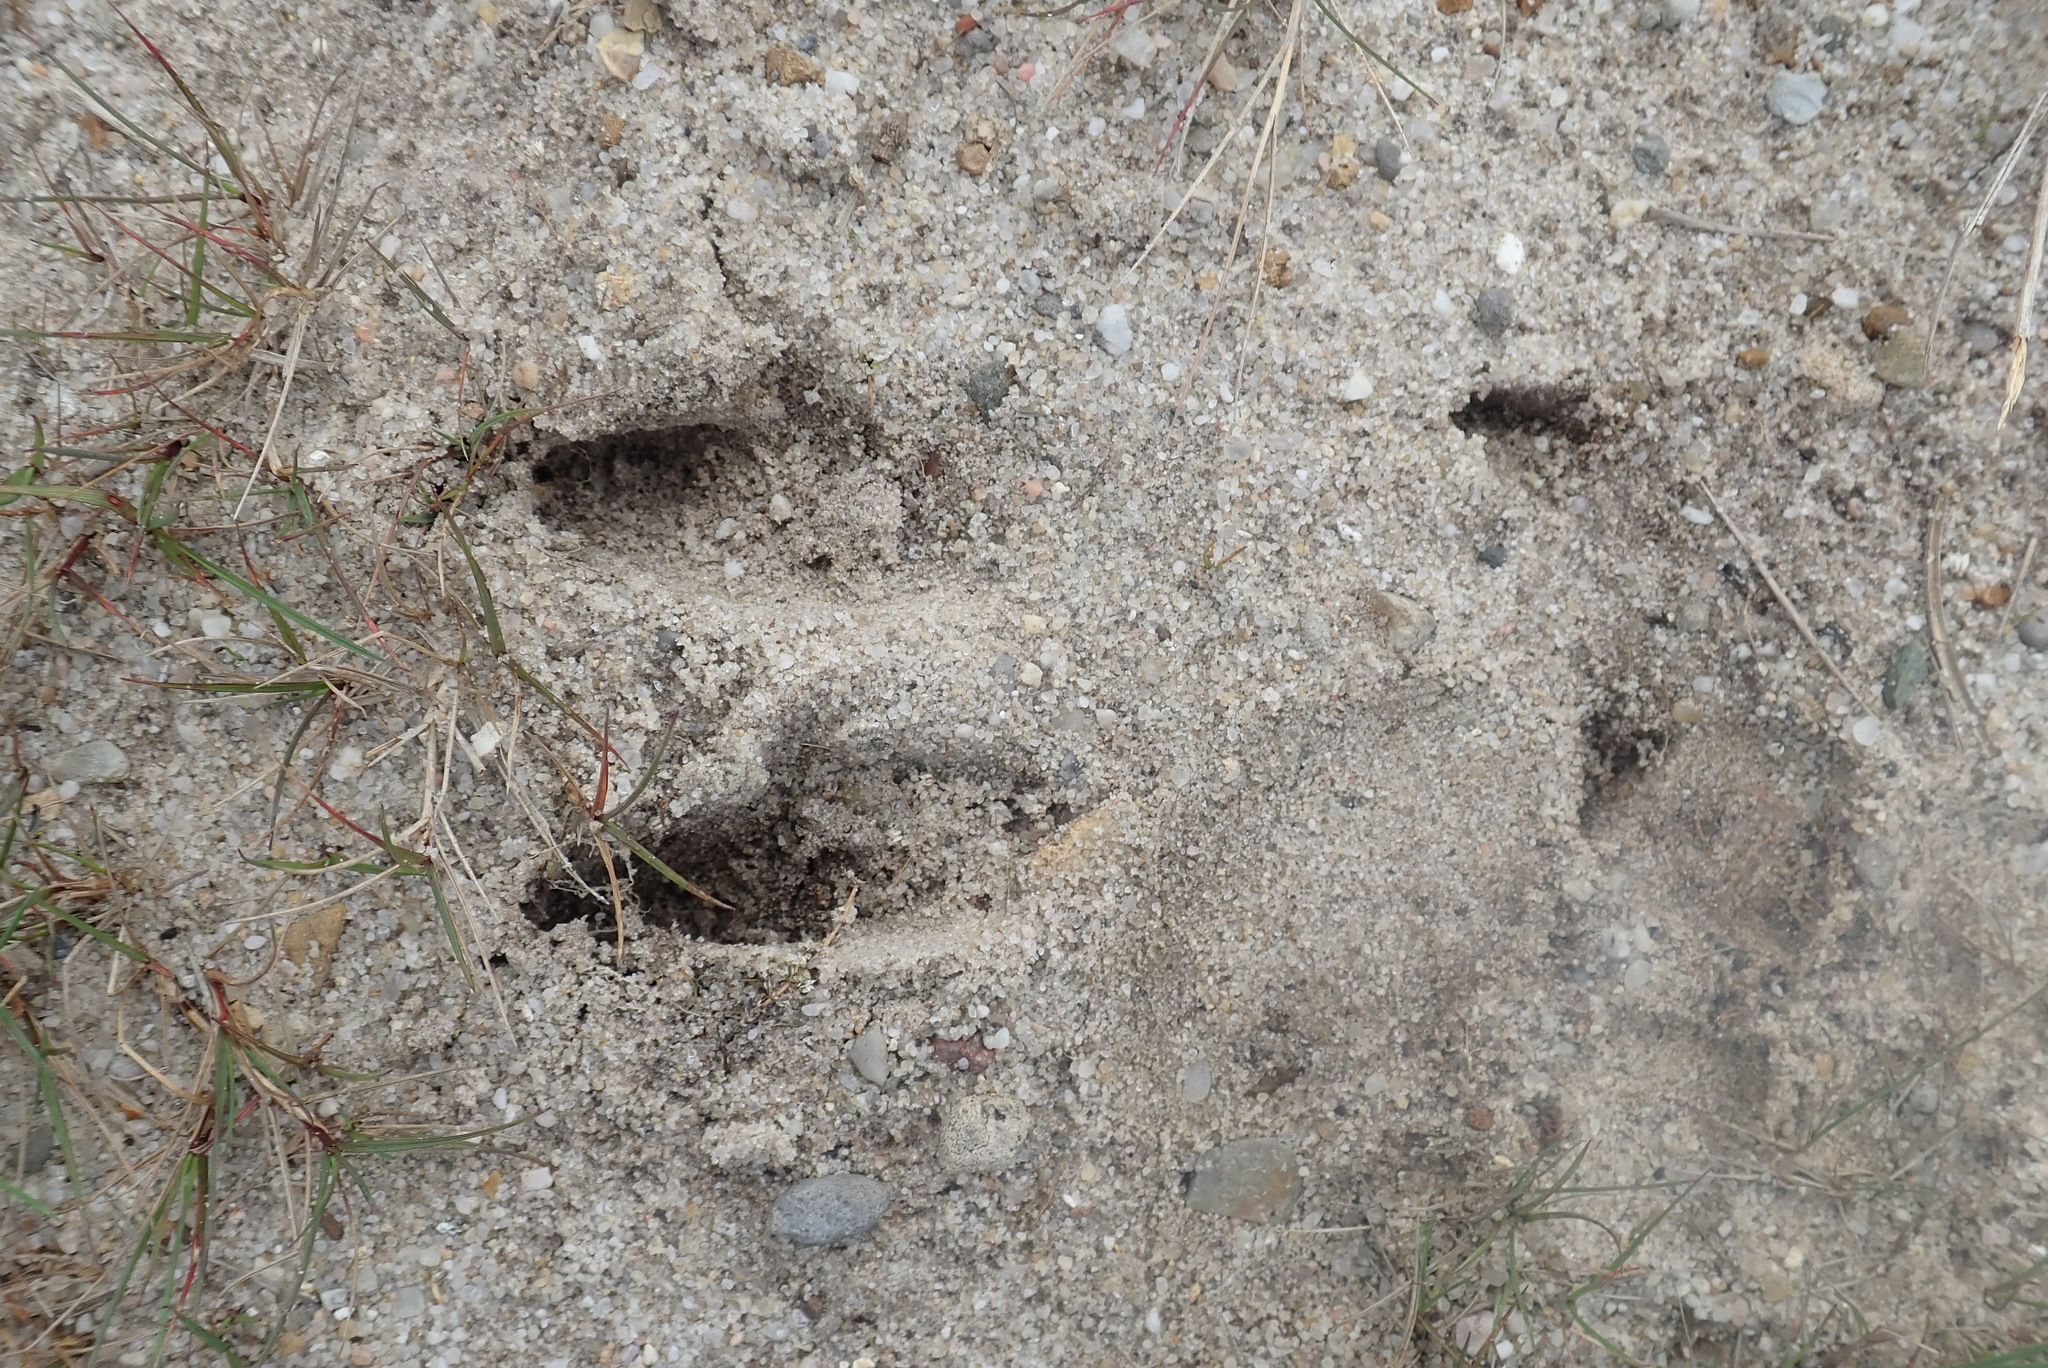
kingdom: Animalia
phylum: Chordata
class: Mammalia
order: Artiodactyla
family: Cervidae
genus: Capreolus
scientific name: Capreolus capreolus
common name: Western roe deer
